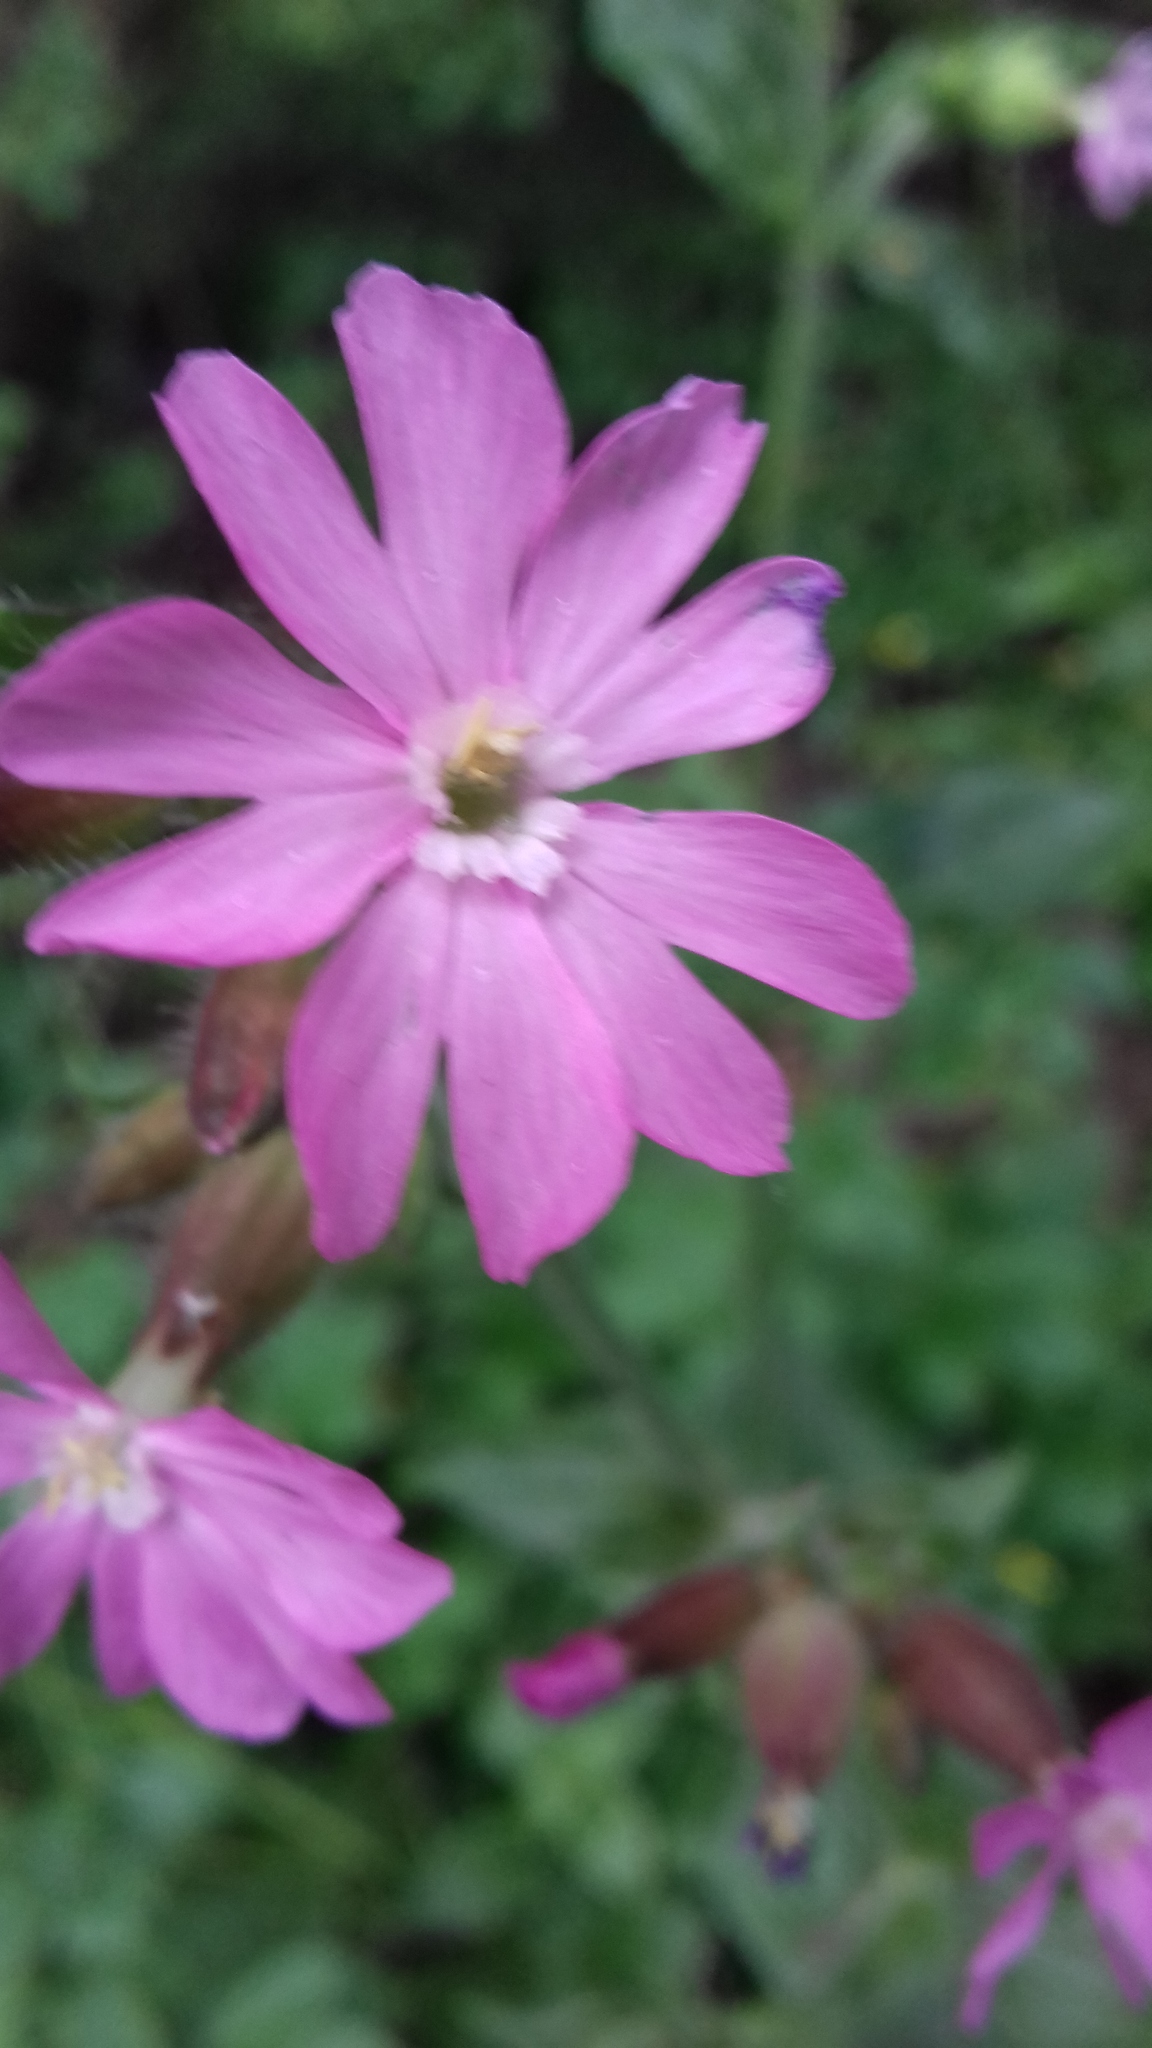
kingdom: Plantae
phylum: Tracheophyta
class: Magnoliopsida
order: Caryophyllales
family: Caryophyllaceae
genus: Silene
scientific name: Silene dioica
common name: Red campion
